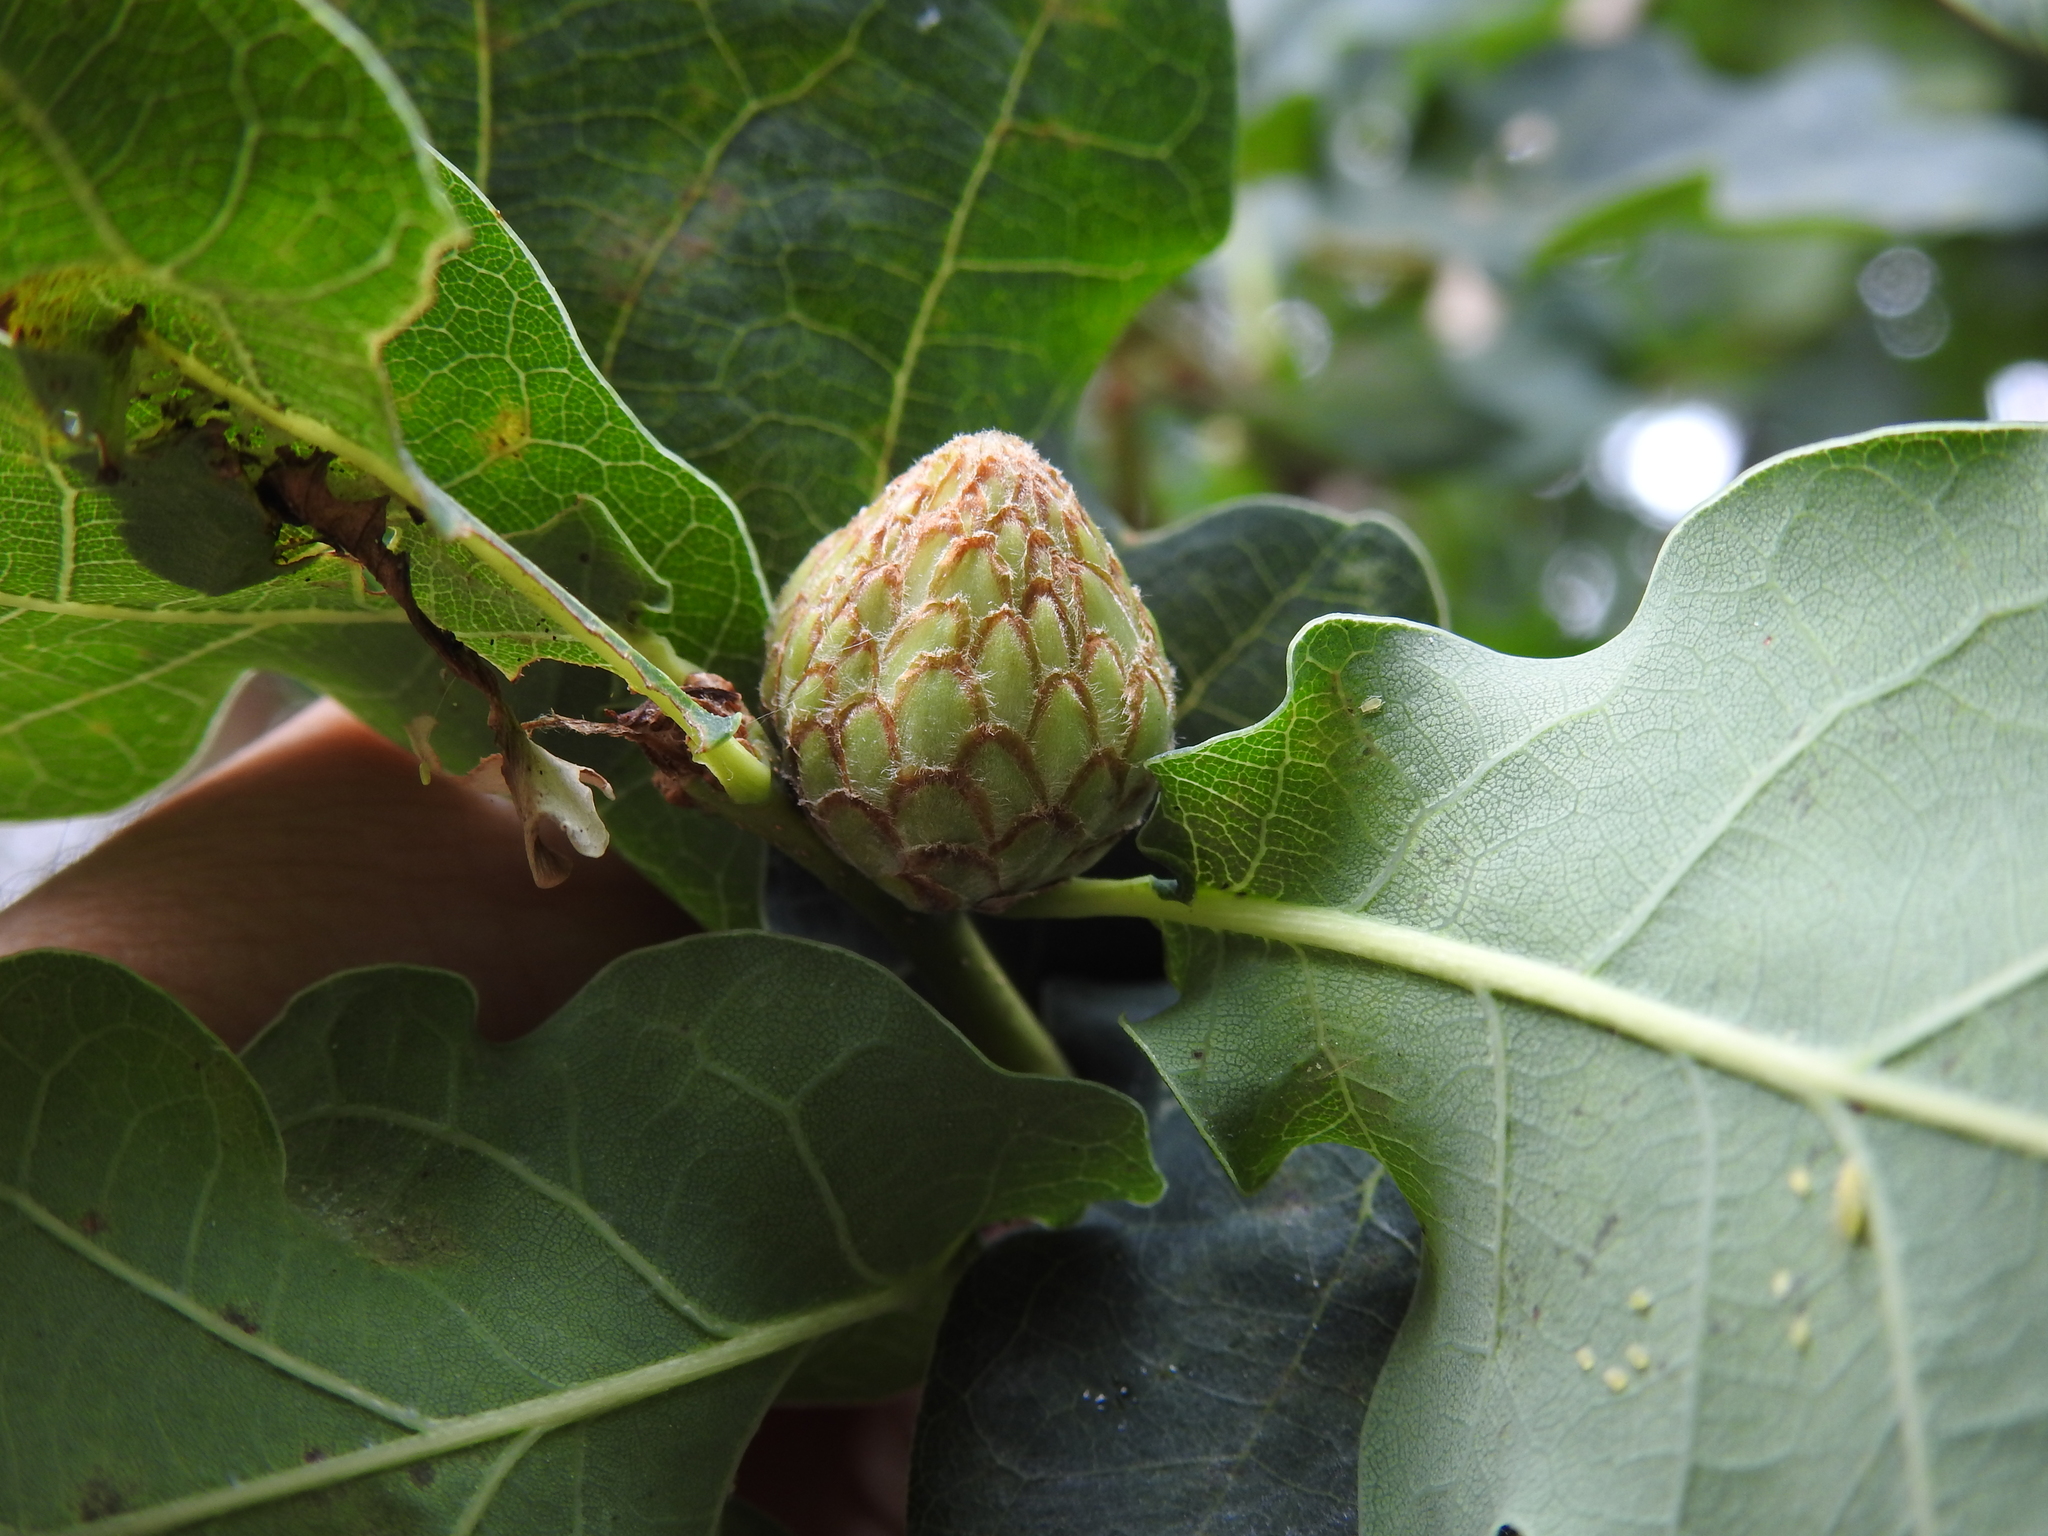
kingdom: Animalia
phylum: Arthropoda
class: Insecta
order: Hymenoptera
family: Cynipidae
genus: Andricus
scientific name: Andricus foecundatrix
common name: Artichoke gall
